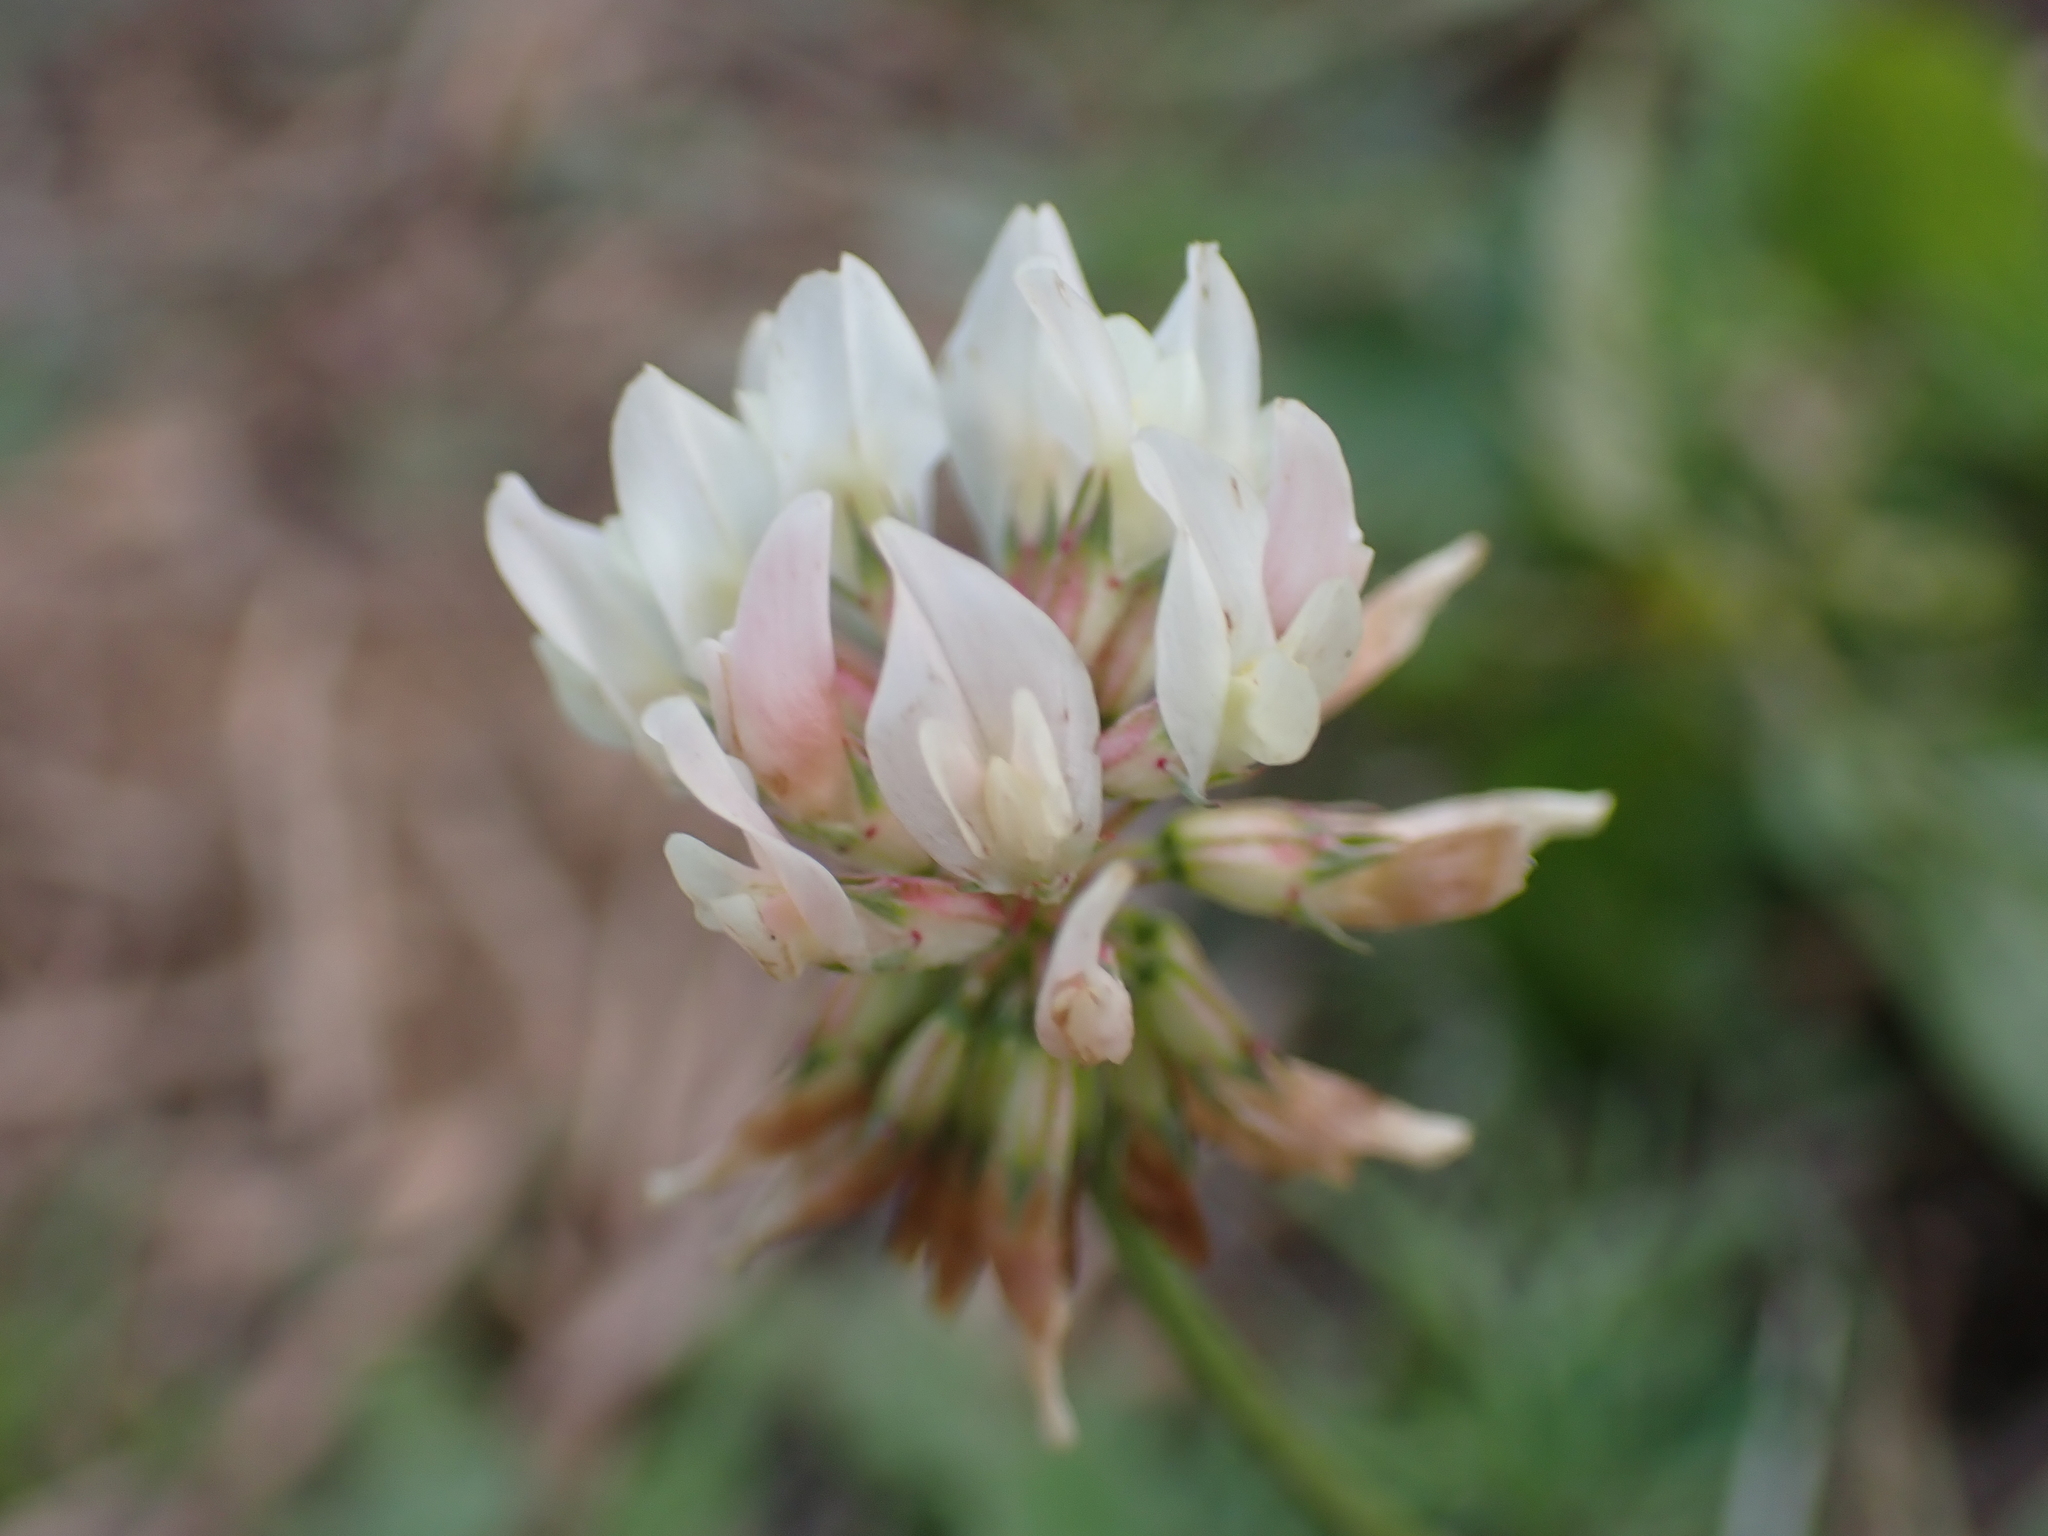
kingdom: Plantae
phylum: Tracheophyta
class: Magnoliopsida
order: Fabales
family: Fabaceae
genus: Trifolium
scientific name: Trifolium repens
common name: White clover
